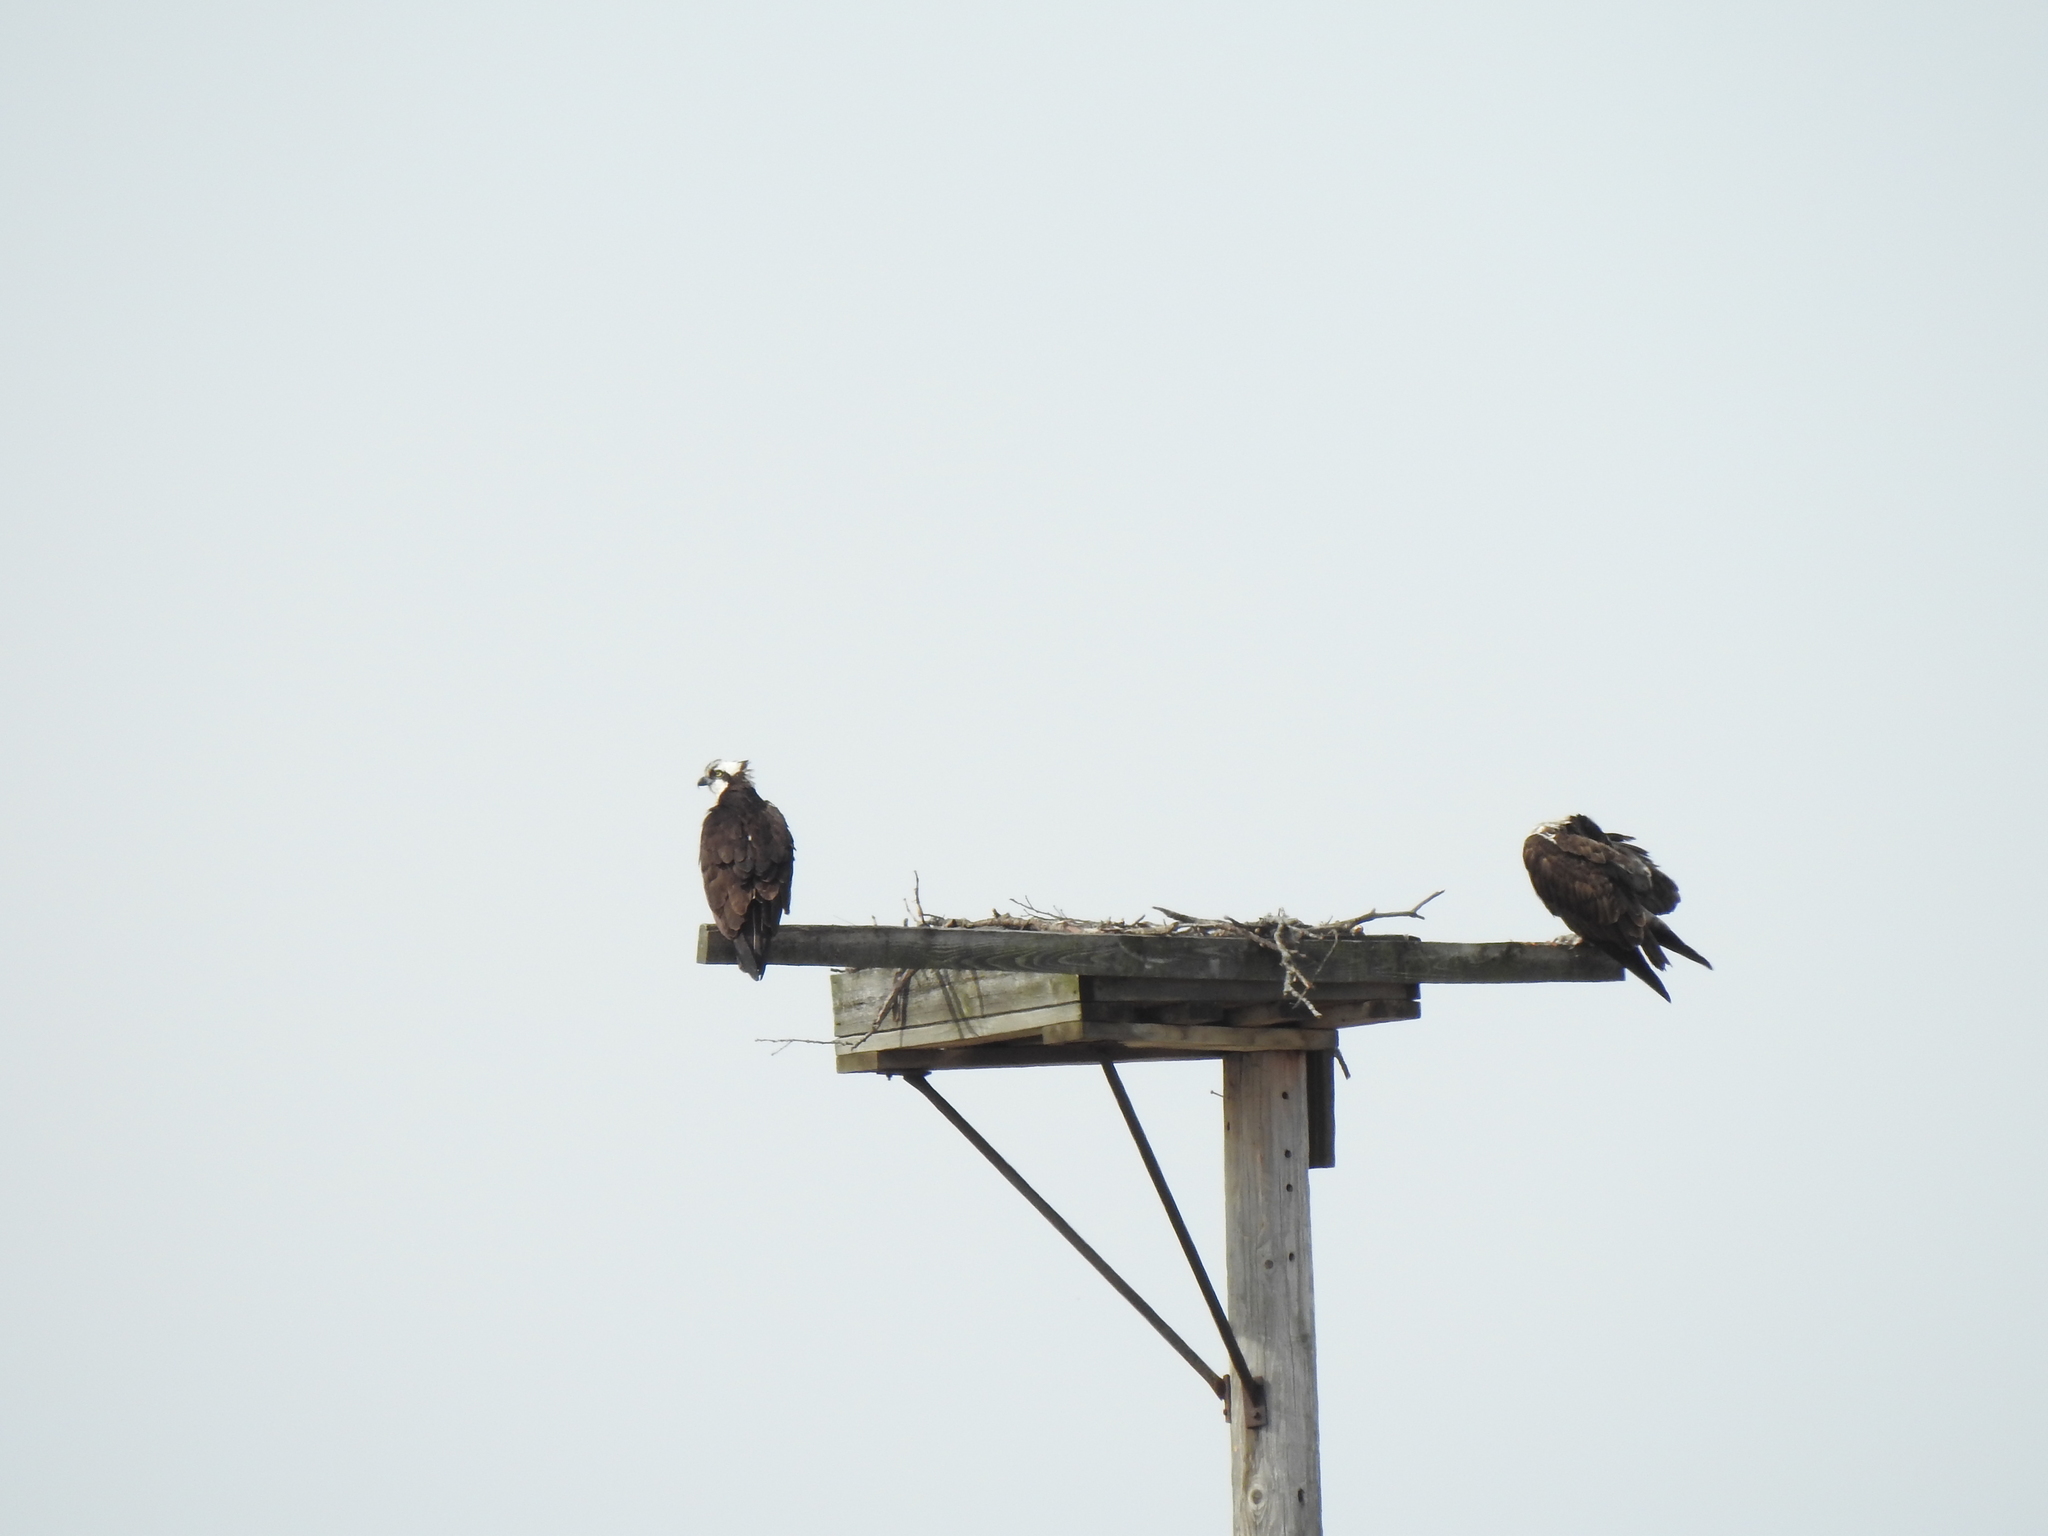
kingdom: Animalia
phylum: Chordata
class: Aves
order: Accipitriformes
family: Pandionidae
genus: Pandion
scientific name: Pandion haliaetus
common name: Osprey
